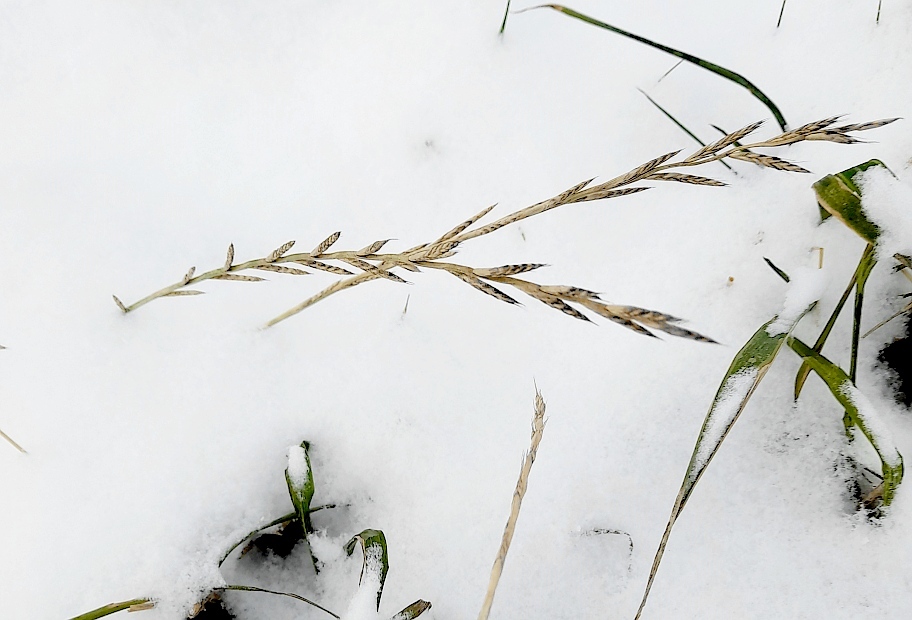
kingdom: Plantae
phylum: Tracheophyta
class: Liliopsida
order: Poales
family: Poaceae
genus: Lolium
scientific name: Lolium multiflorum
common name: Annual ryegrass
